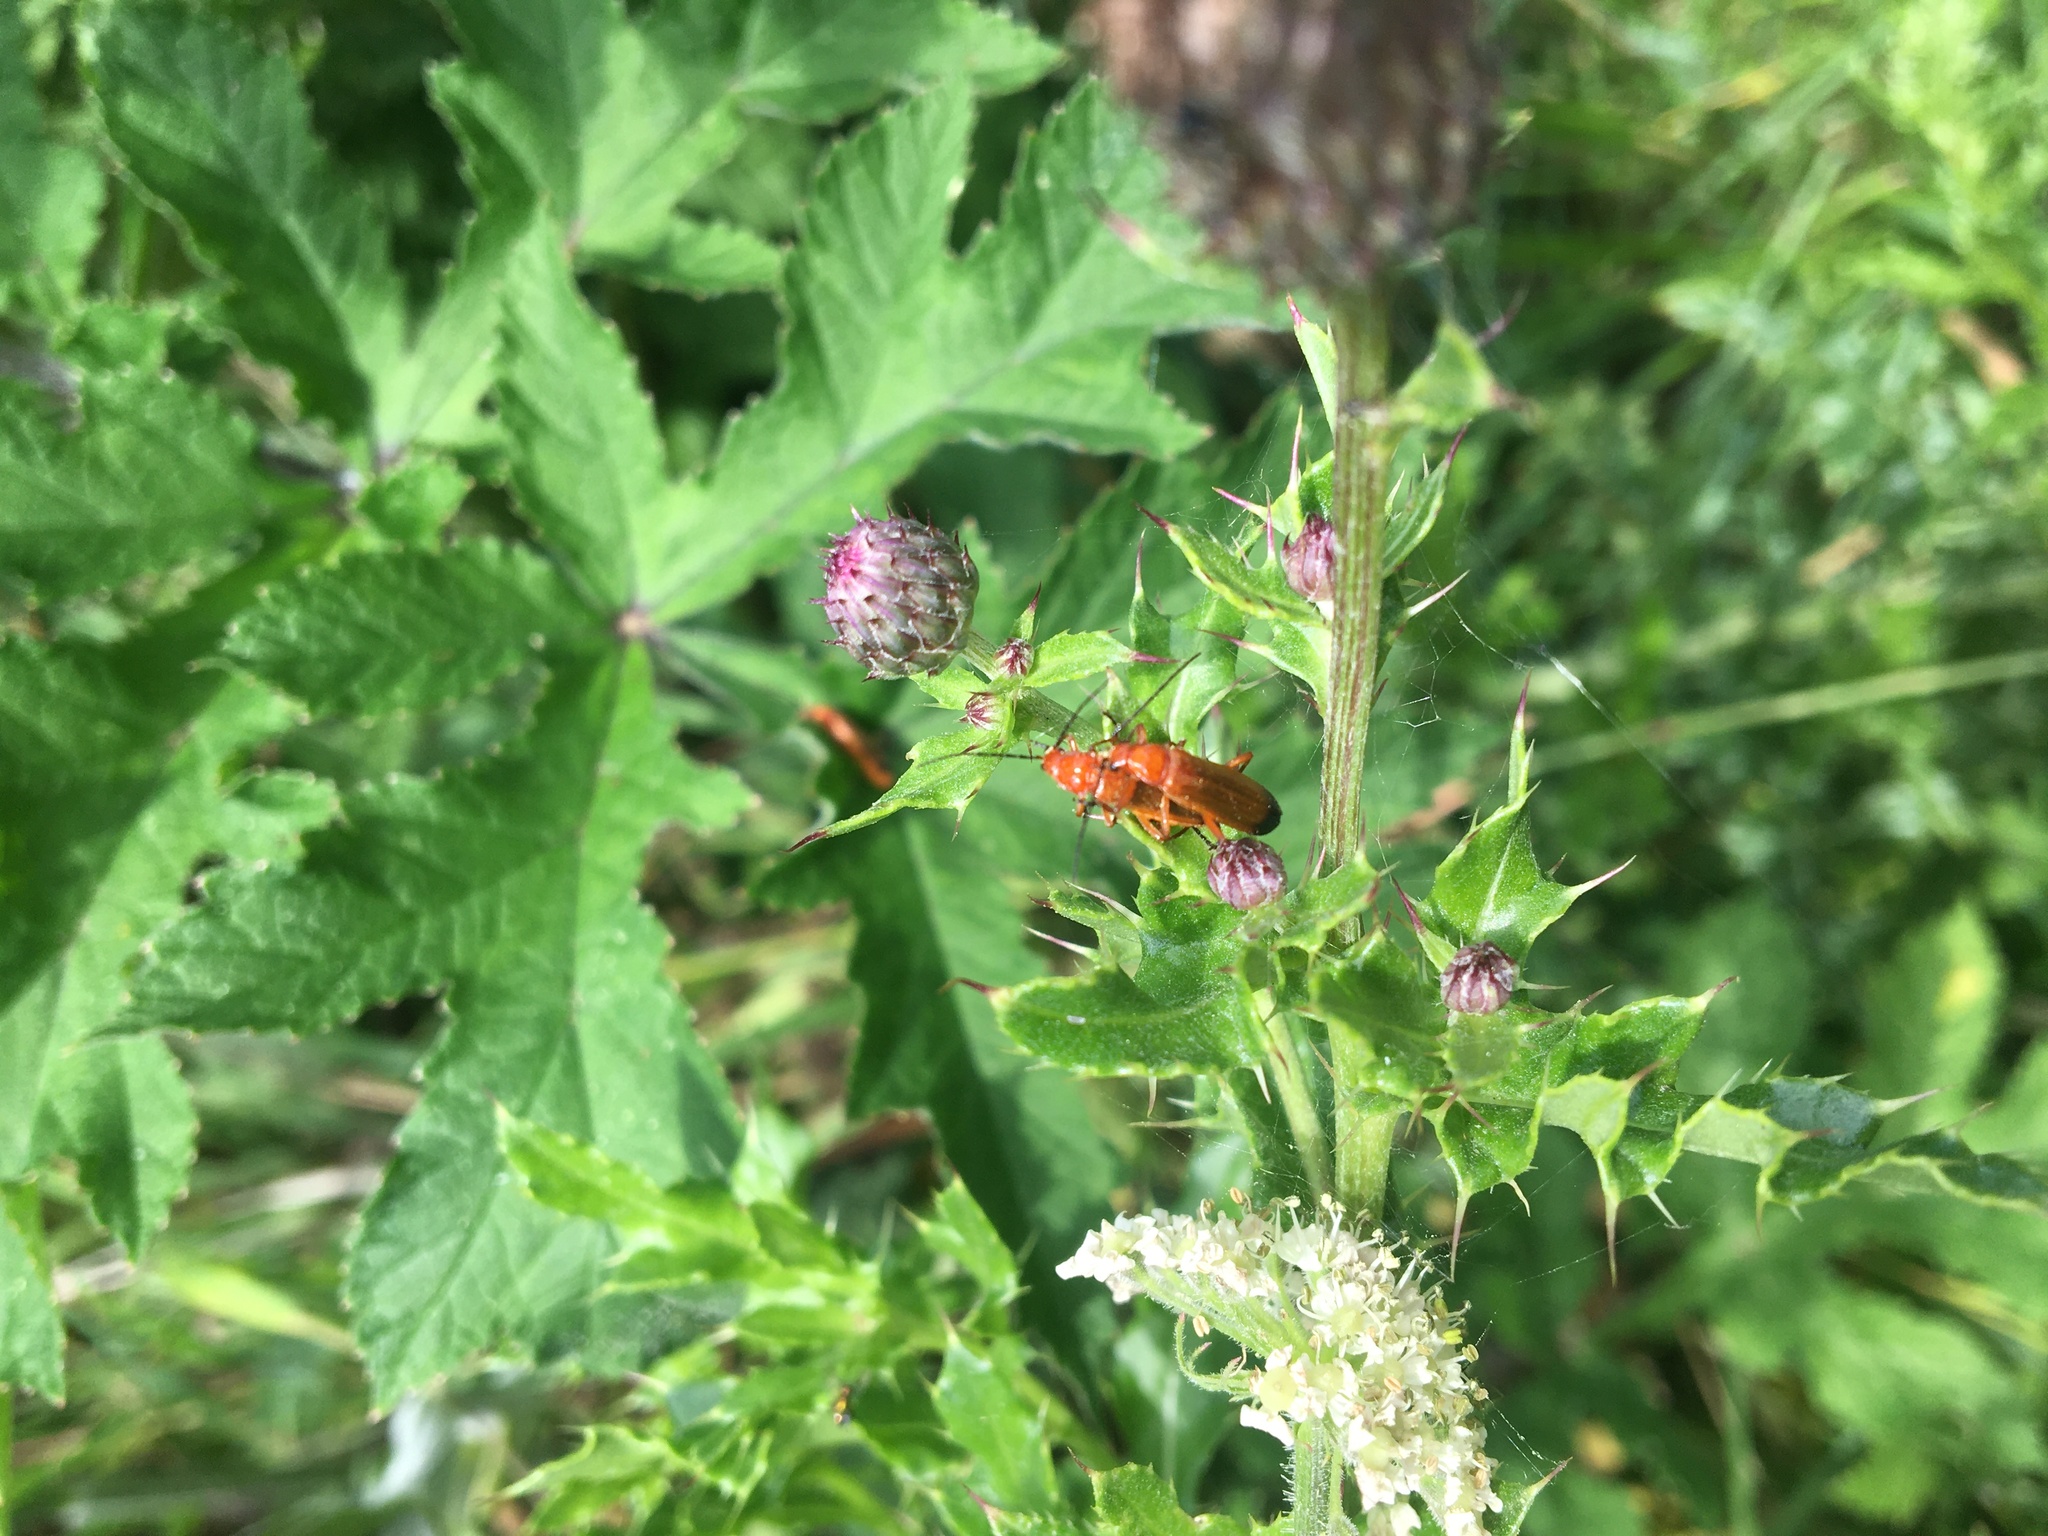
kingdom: Animalia
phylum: Arthropoda
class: Insecta
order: Coleoptera
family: Cantharidae
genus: Rhagonycha
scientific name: Rhagonycha fulva
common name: Common red soldier beetle
